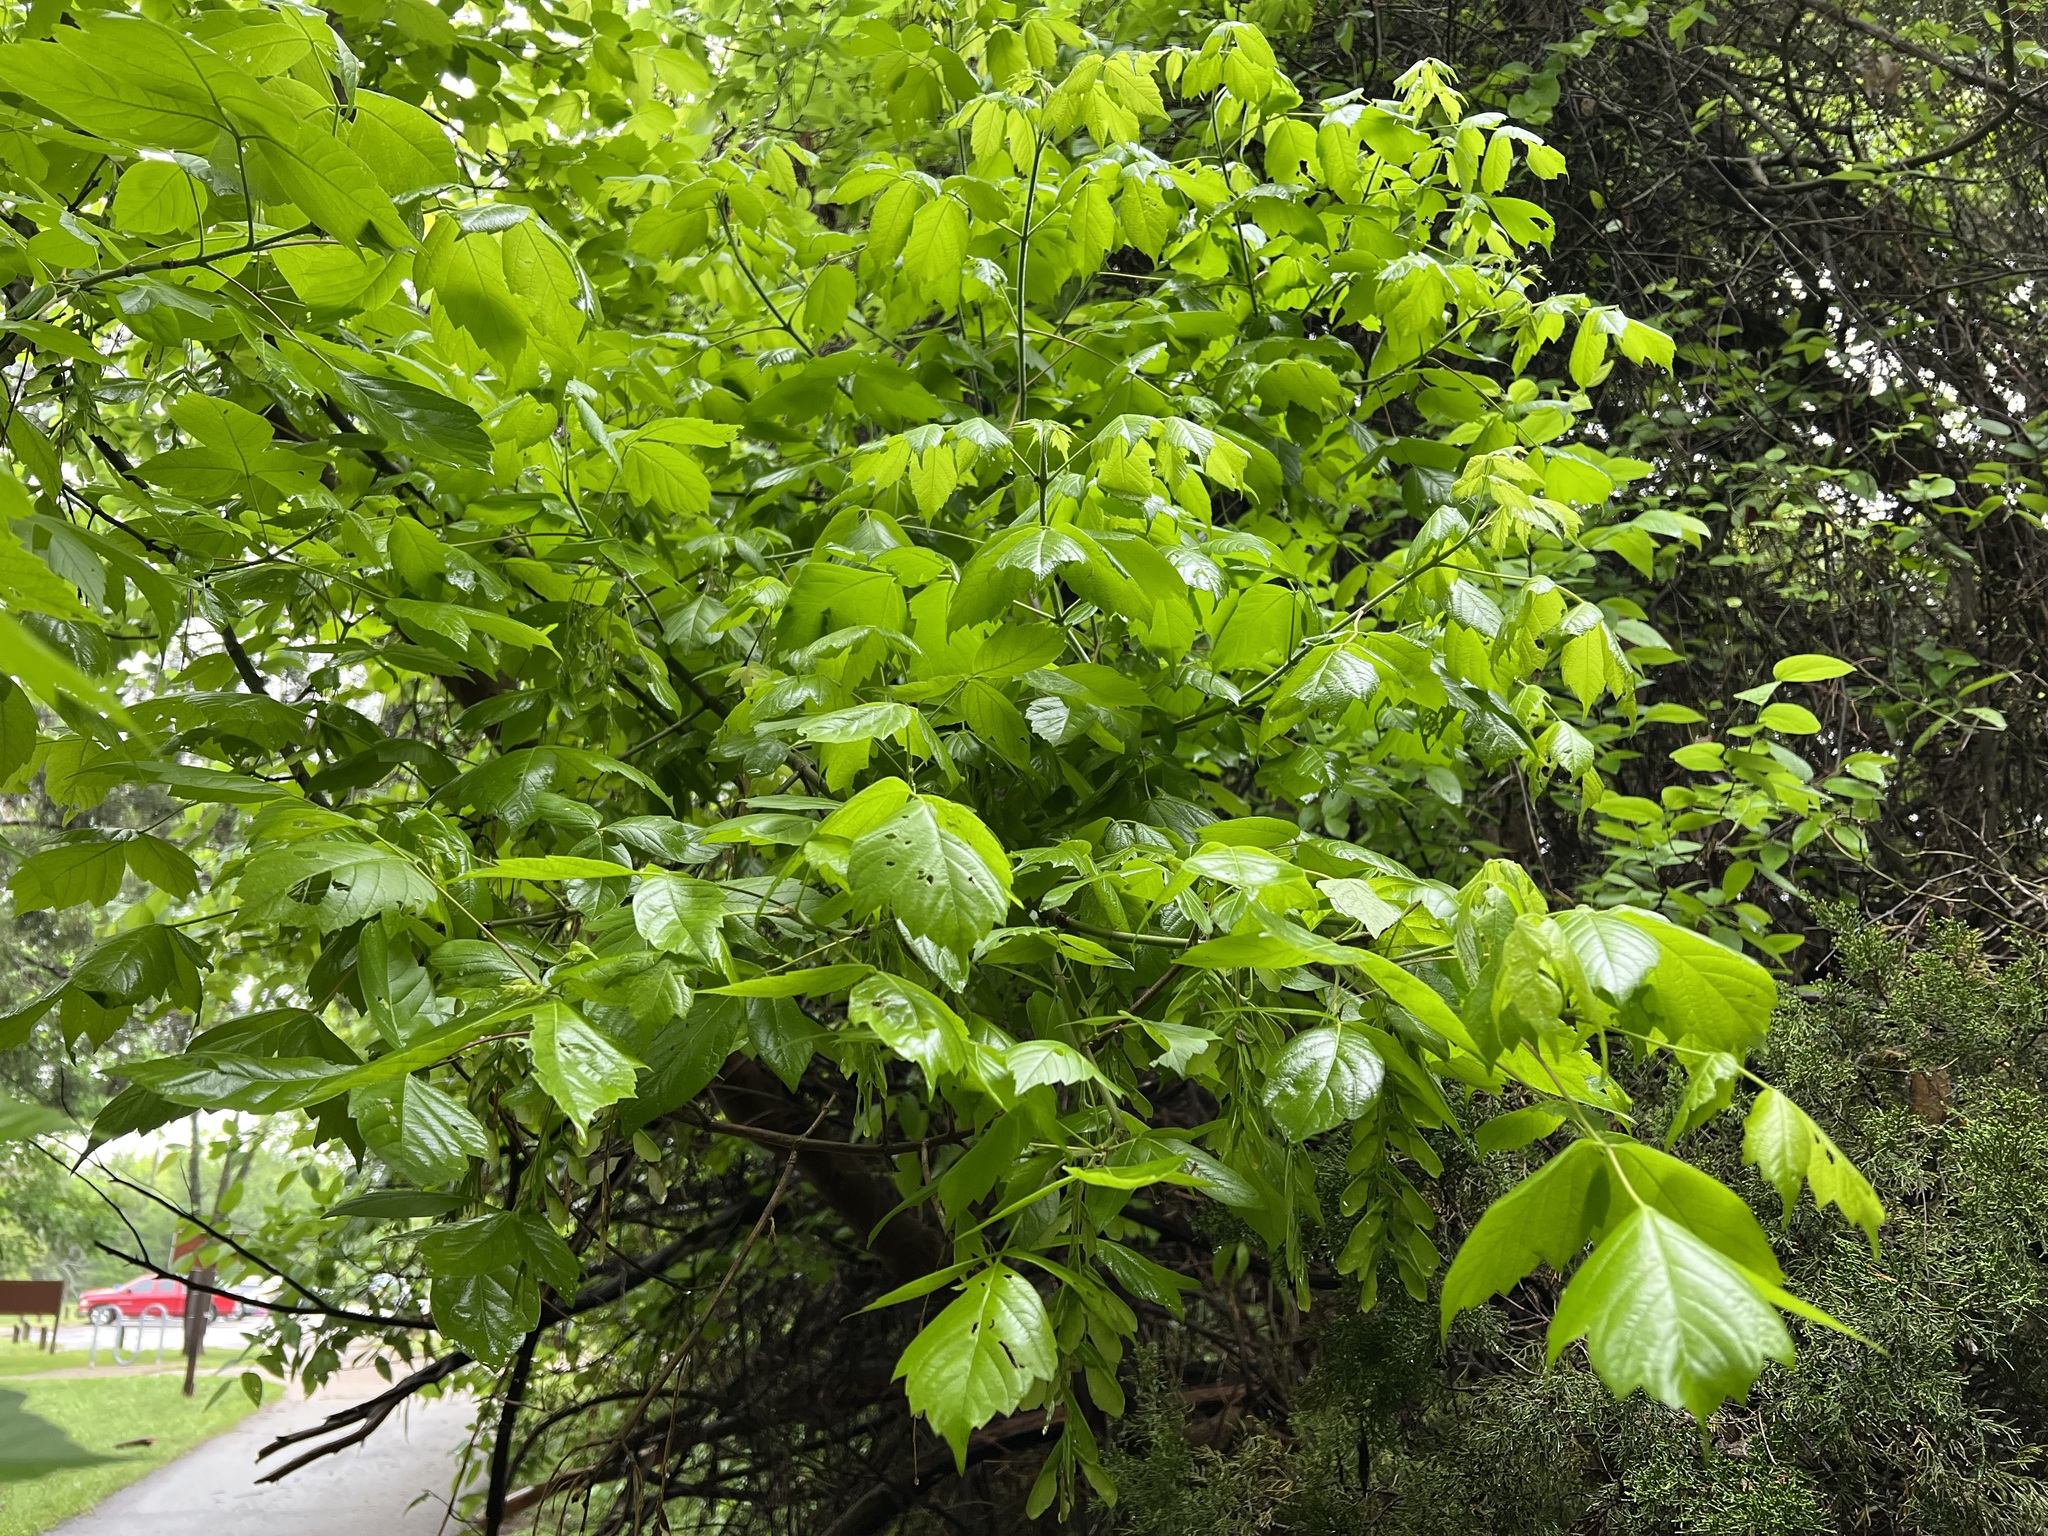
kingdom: Plantae
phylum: Tracheophyta
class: Magnoliopsida
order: Sapindales
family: Sapindaceae
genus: Acer
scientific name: Acer negundo
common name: Ashleaf maple
